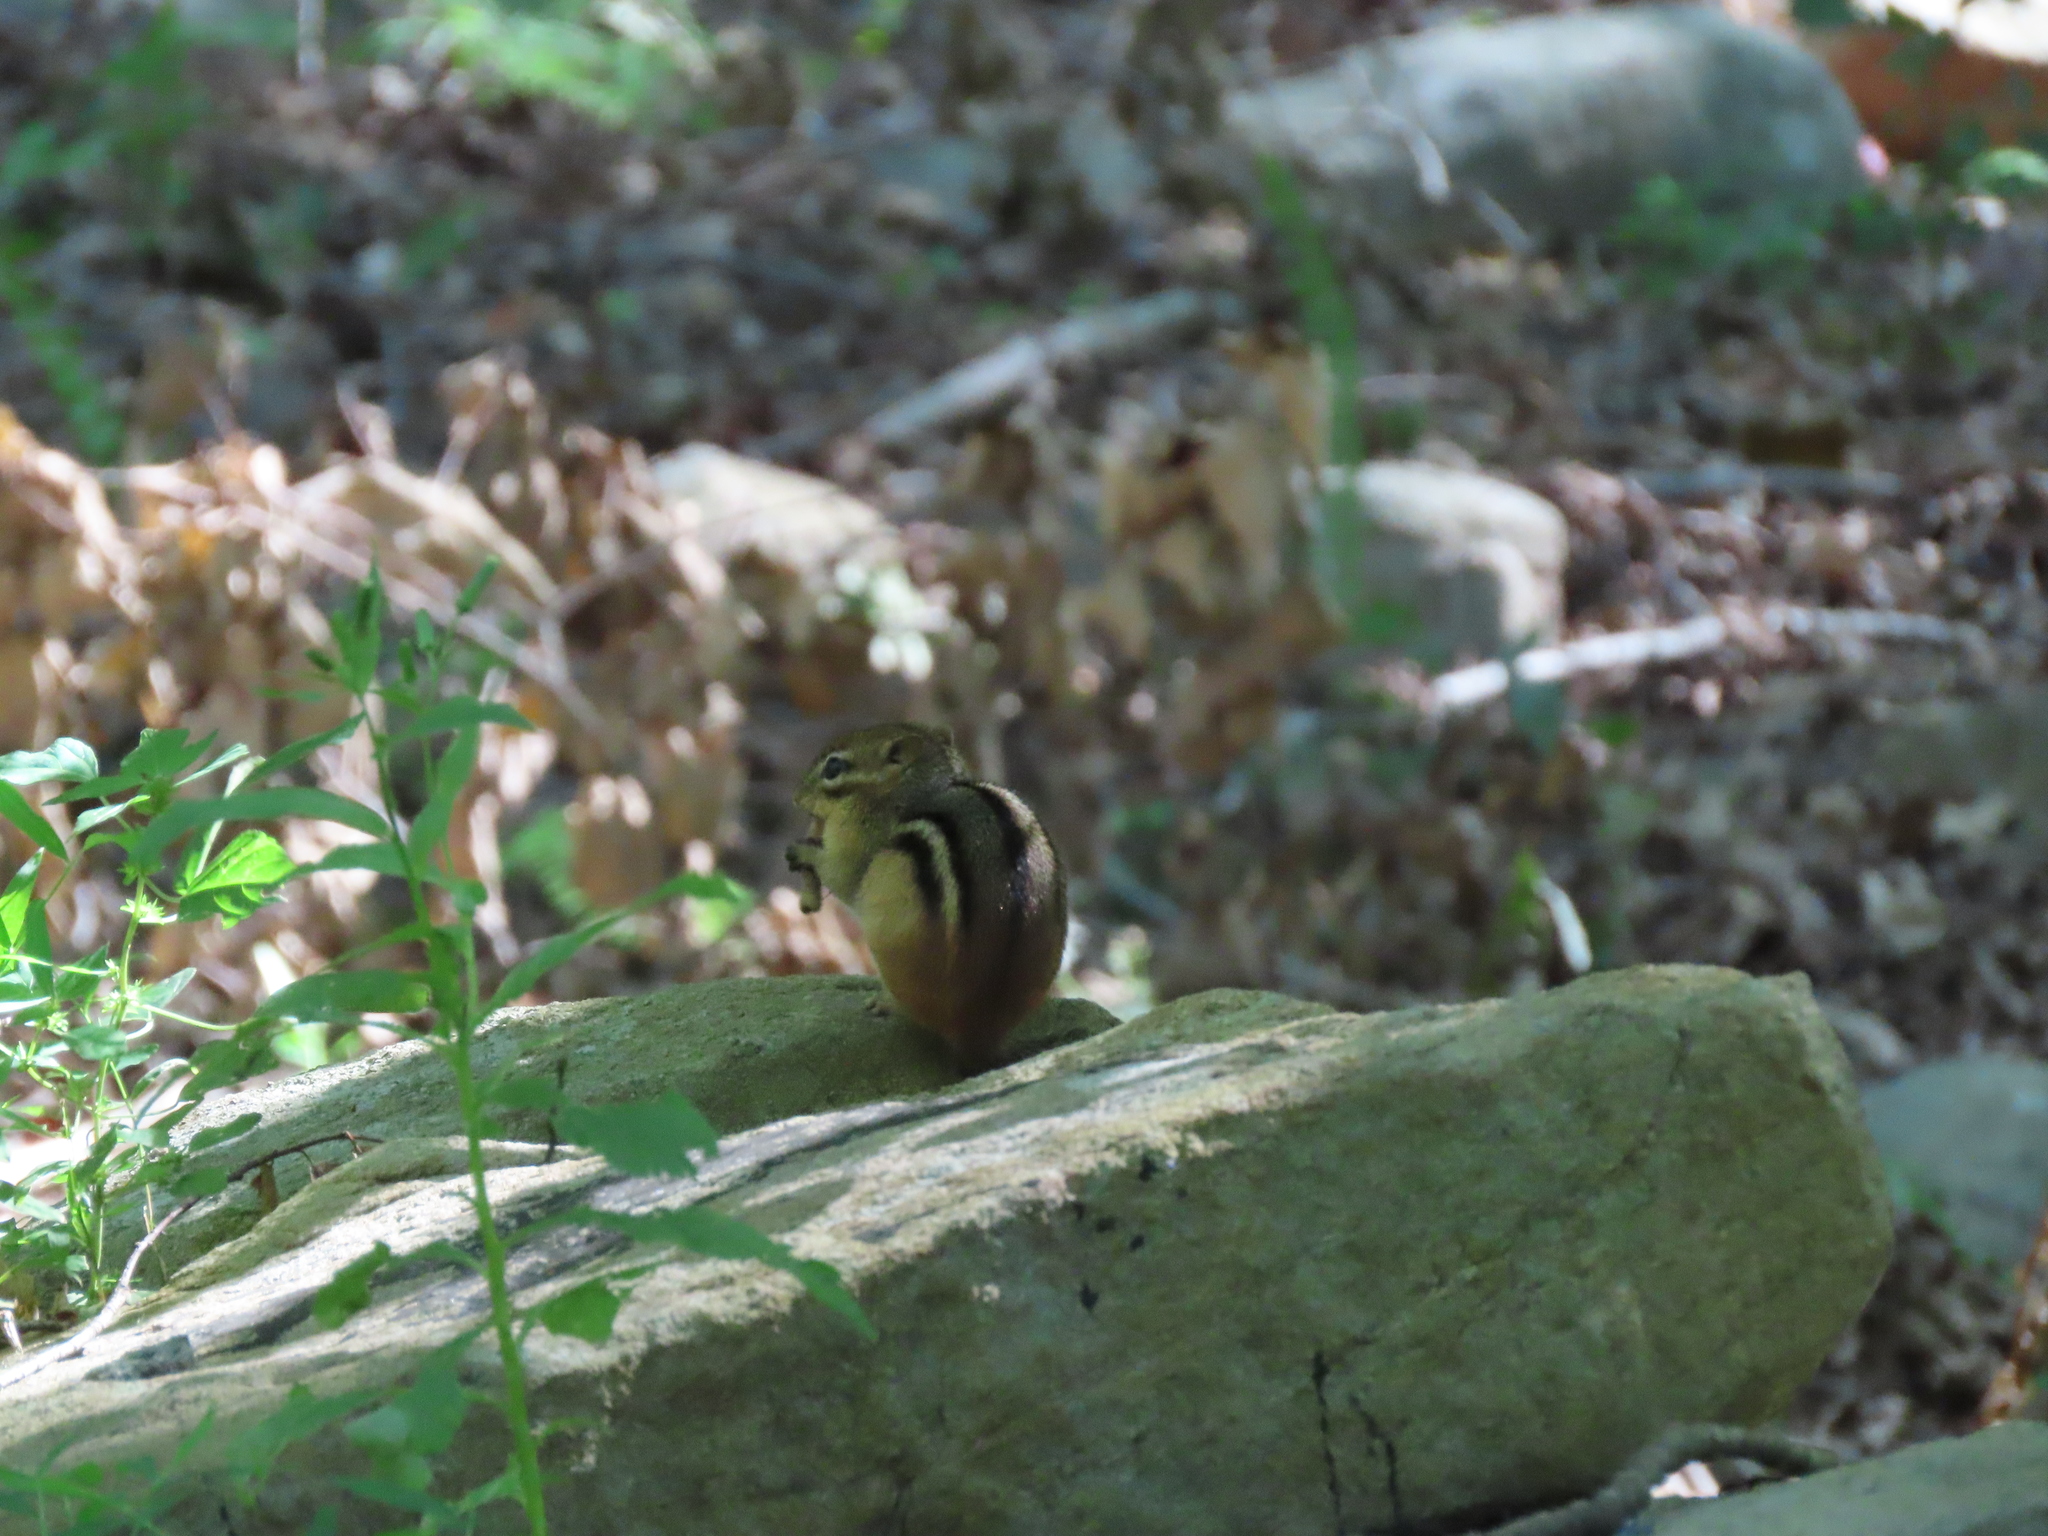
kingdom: Animalia
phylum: Chordata
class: Mammalia
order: Rodentia
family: Sciuridae
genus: Tamias
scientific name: Tamias striatus
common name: Eastern chipmunk
